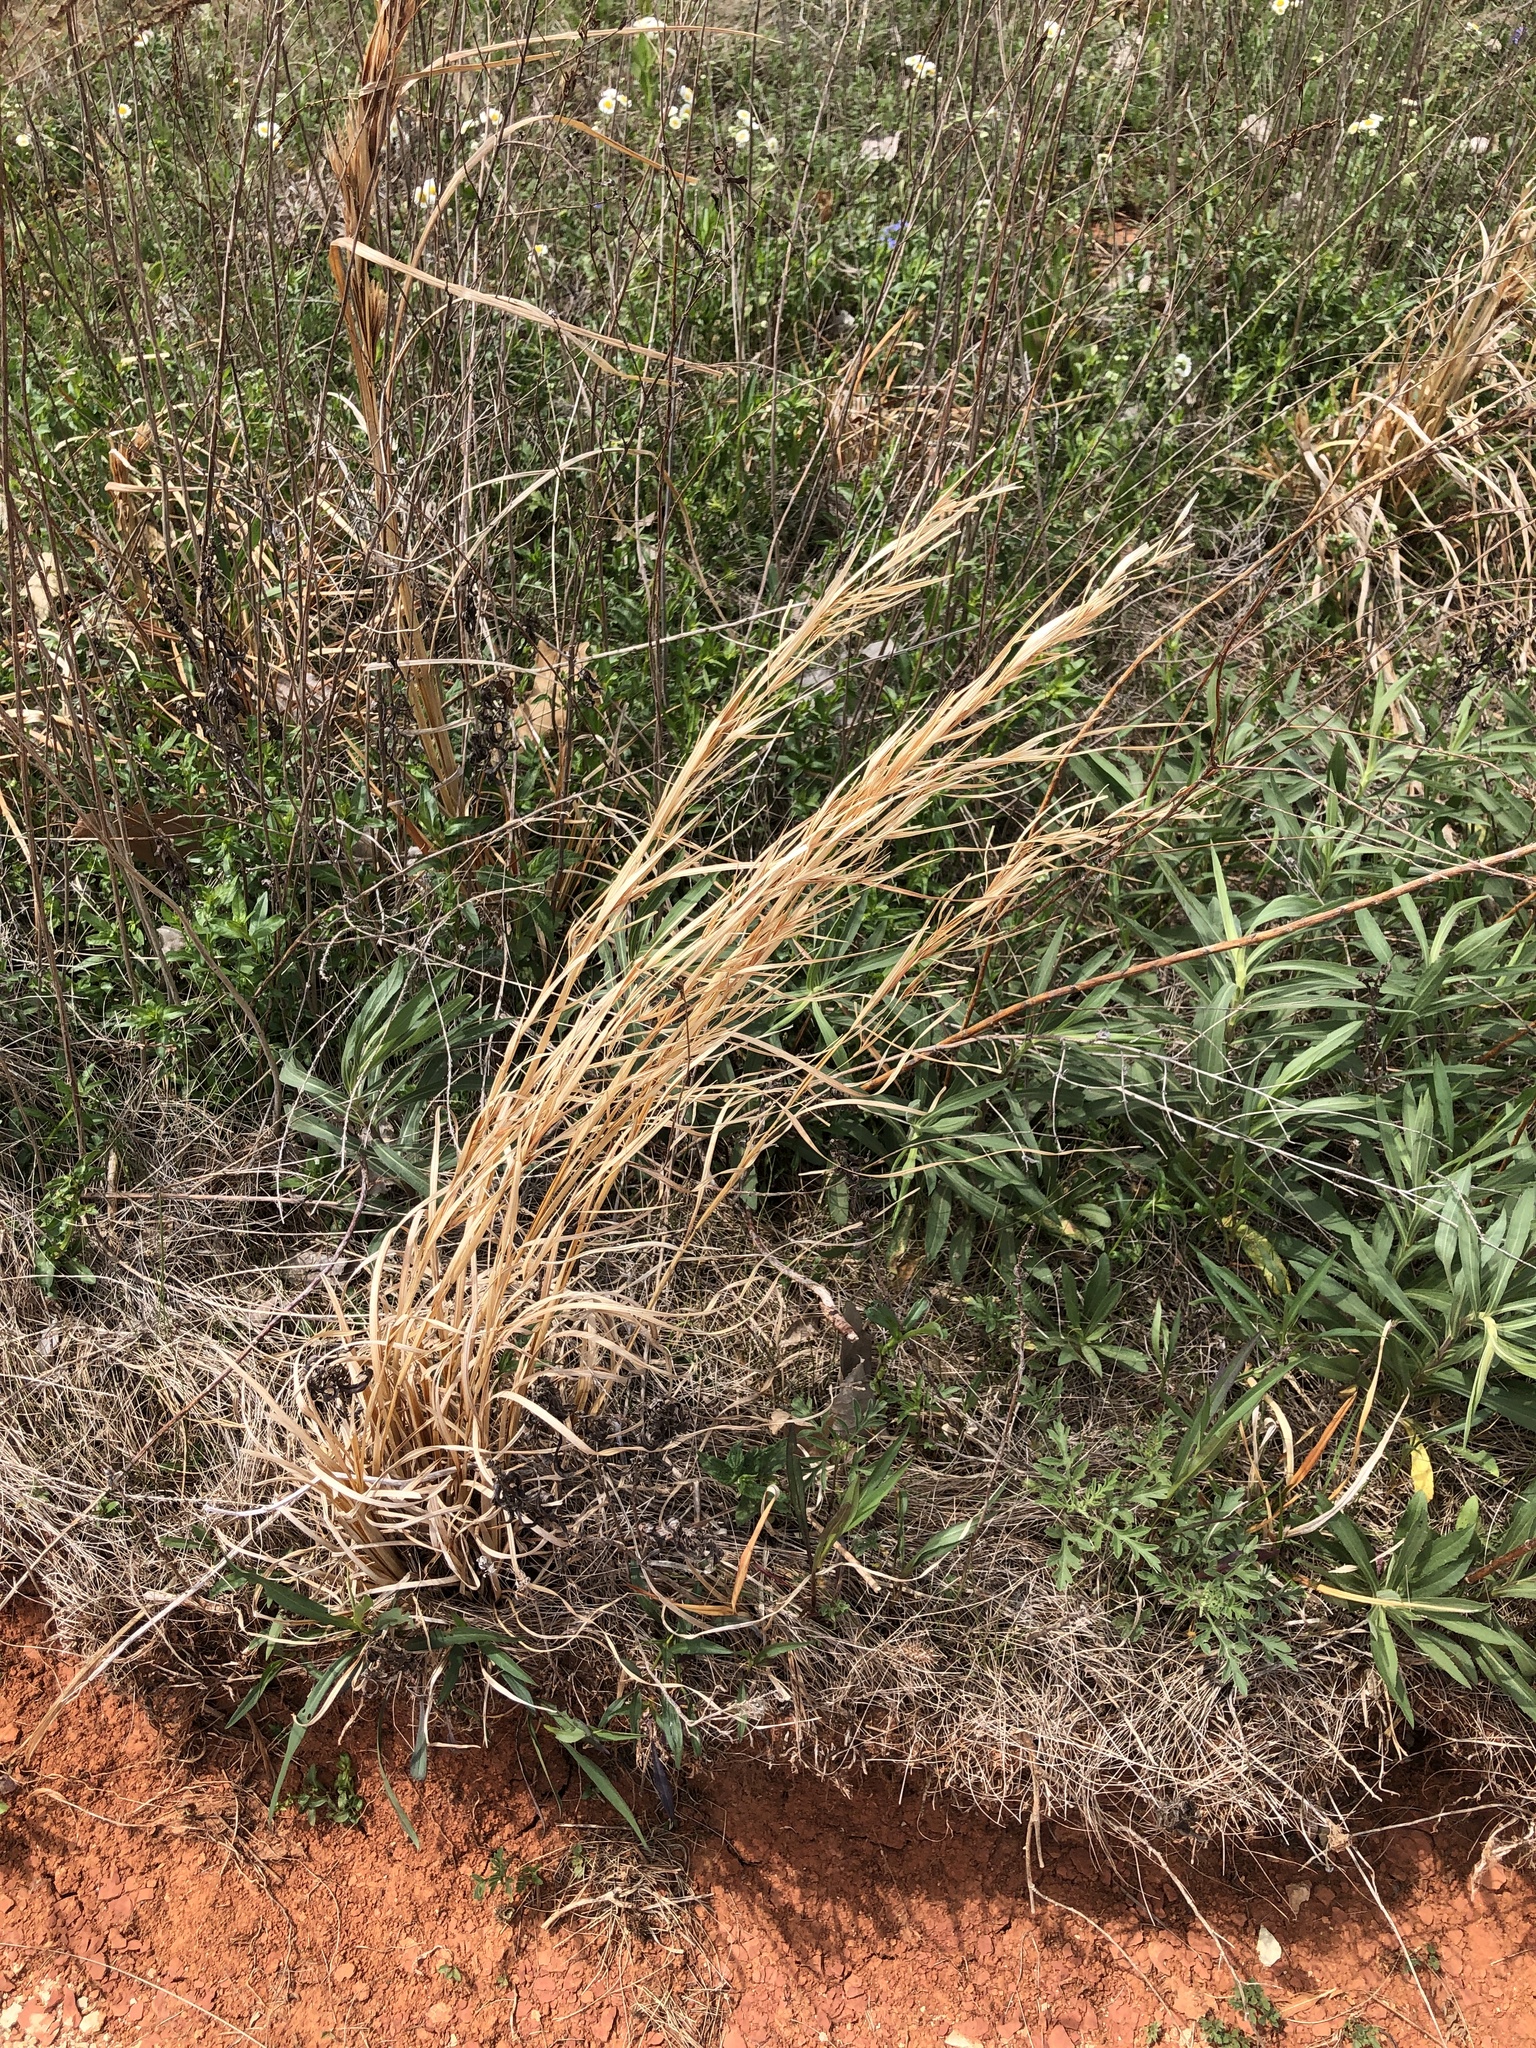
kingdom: Plantae
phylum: Tracheophyta
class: Liliopsida
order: Poales
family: Poaceae
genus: Andropogon
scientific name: Andropogon virginicus
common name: Broomsedge bluestem
